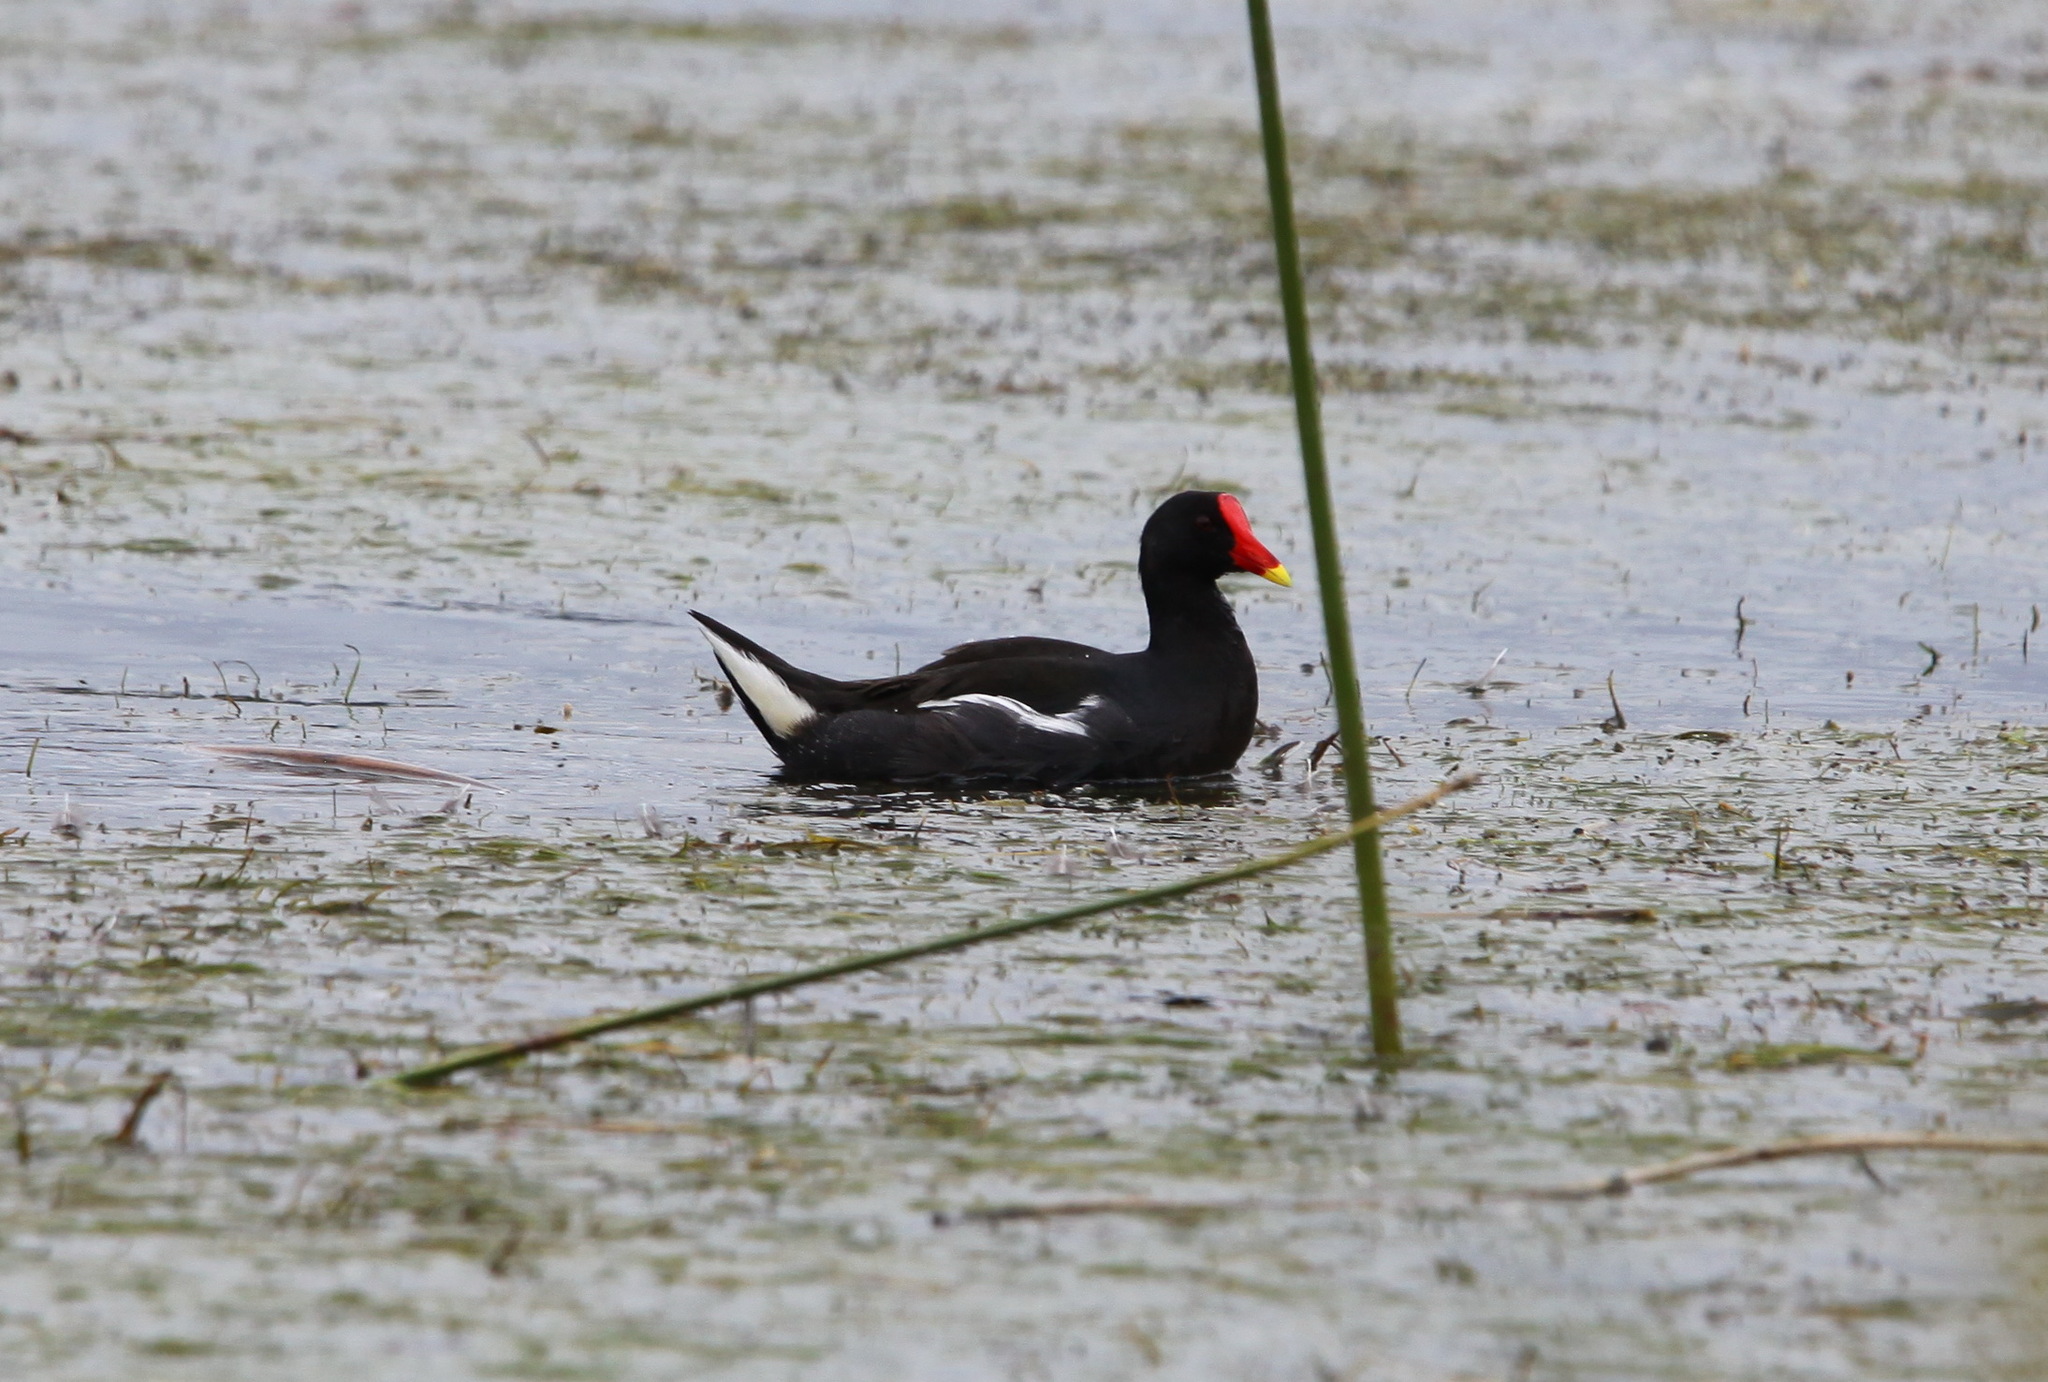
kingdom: Animalia
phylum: Chordata
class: Aves
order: Gruiformes
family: Rallidae
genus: Gallinula
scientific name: Gallinula chloropus
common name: Common moorhen
